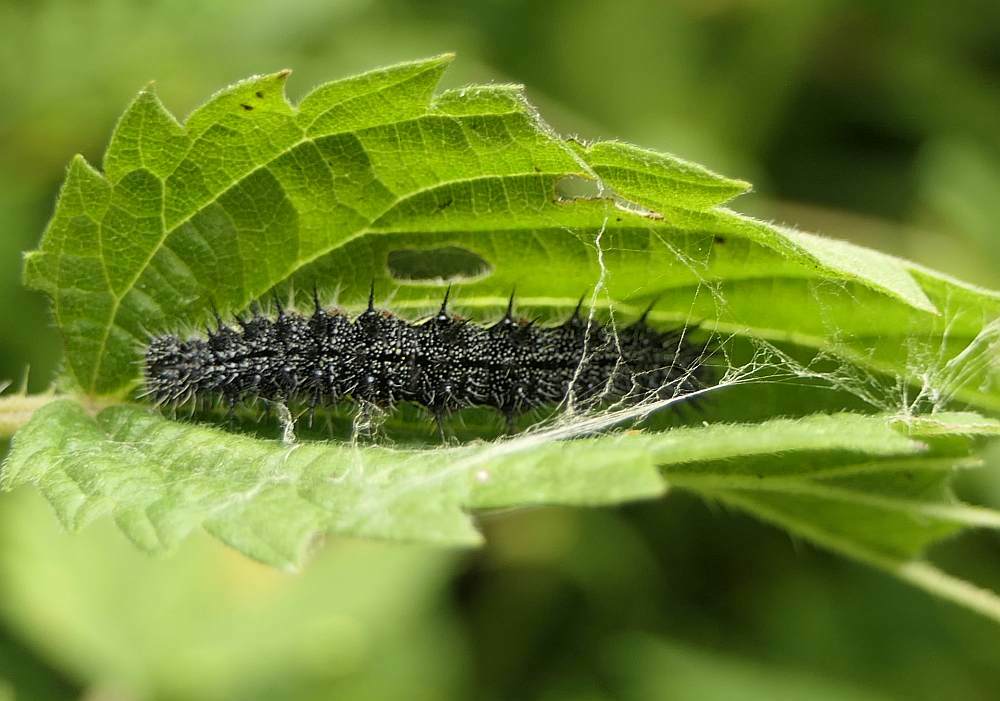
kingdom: Animalia
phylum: Arthropoda
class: Insecta
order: Lepidoptera
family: Nymphalidae
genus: Vanessa
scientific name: Vanessa atalanta
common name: Red admiral
